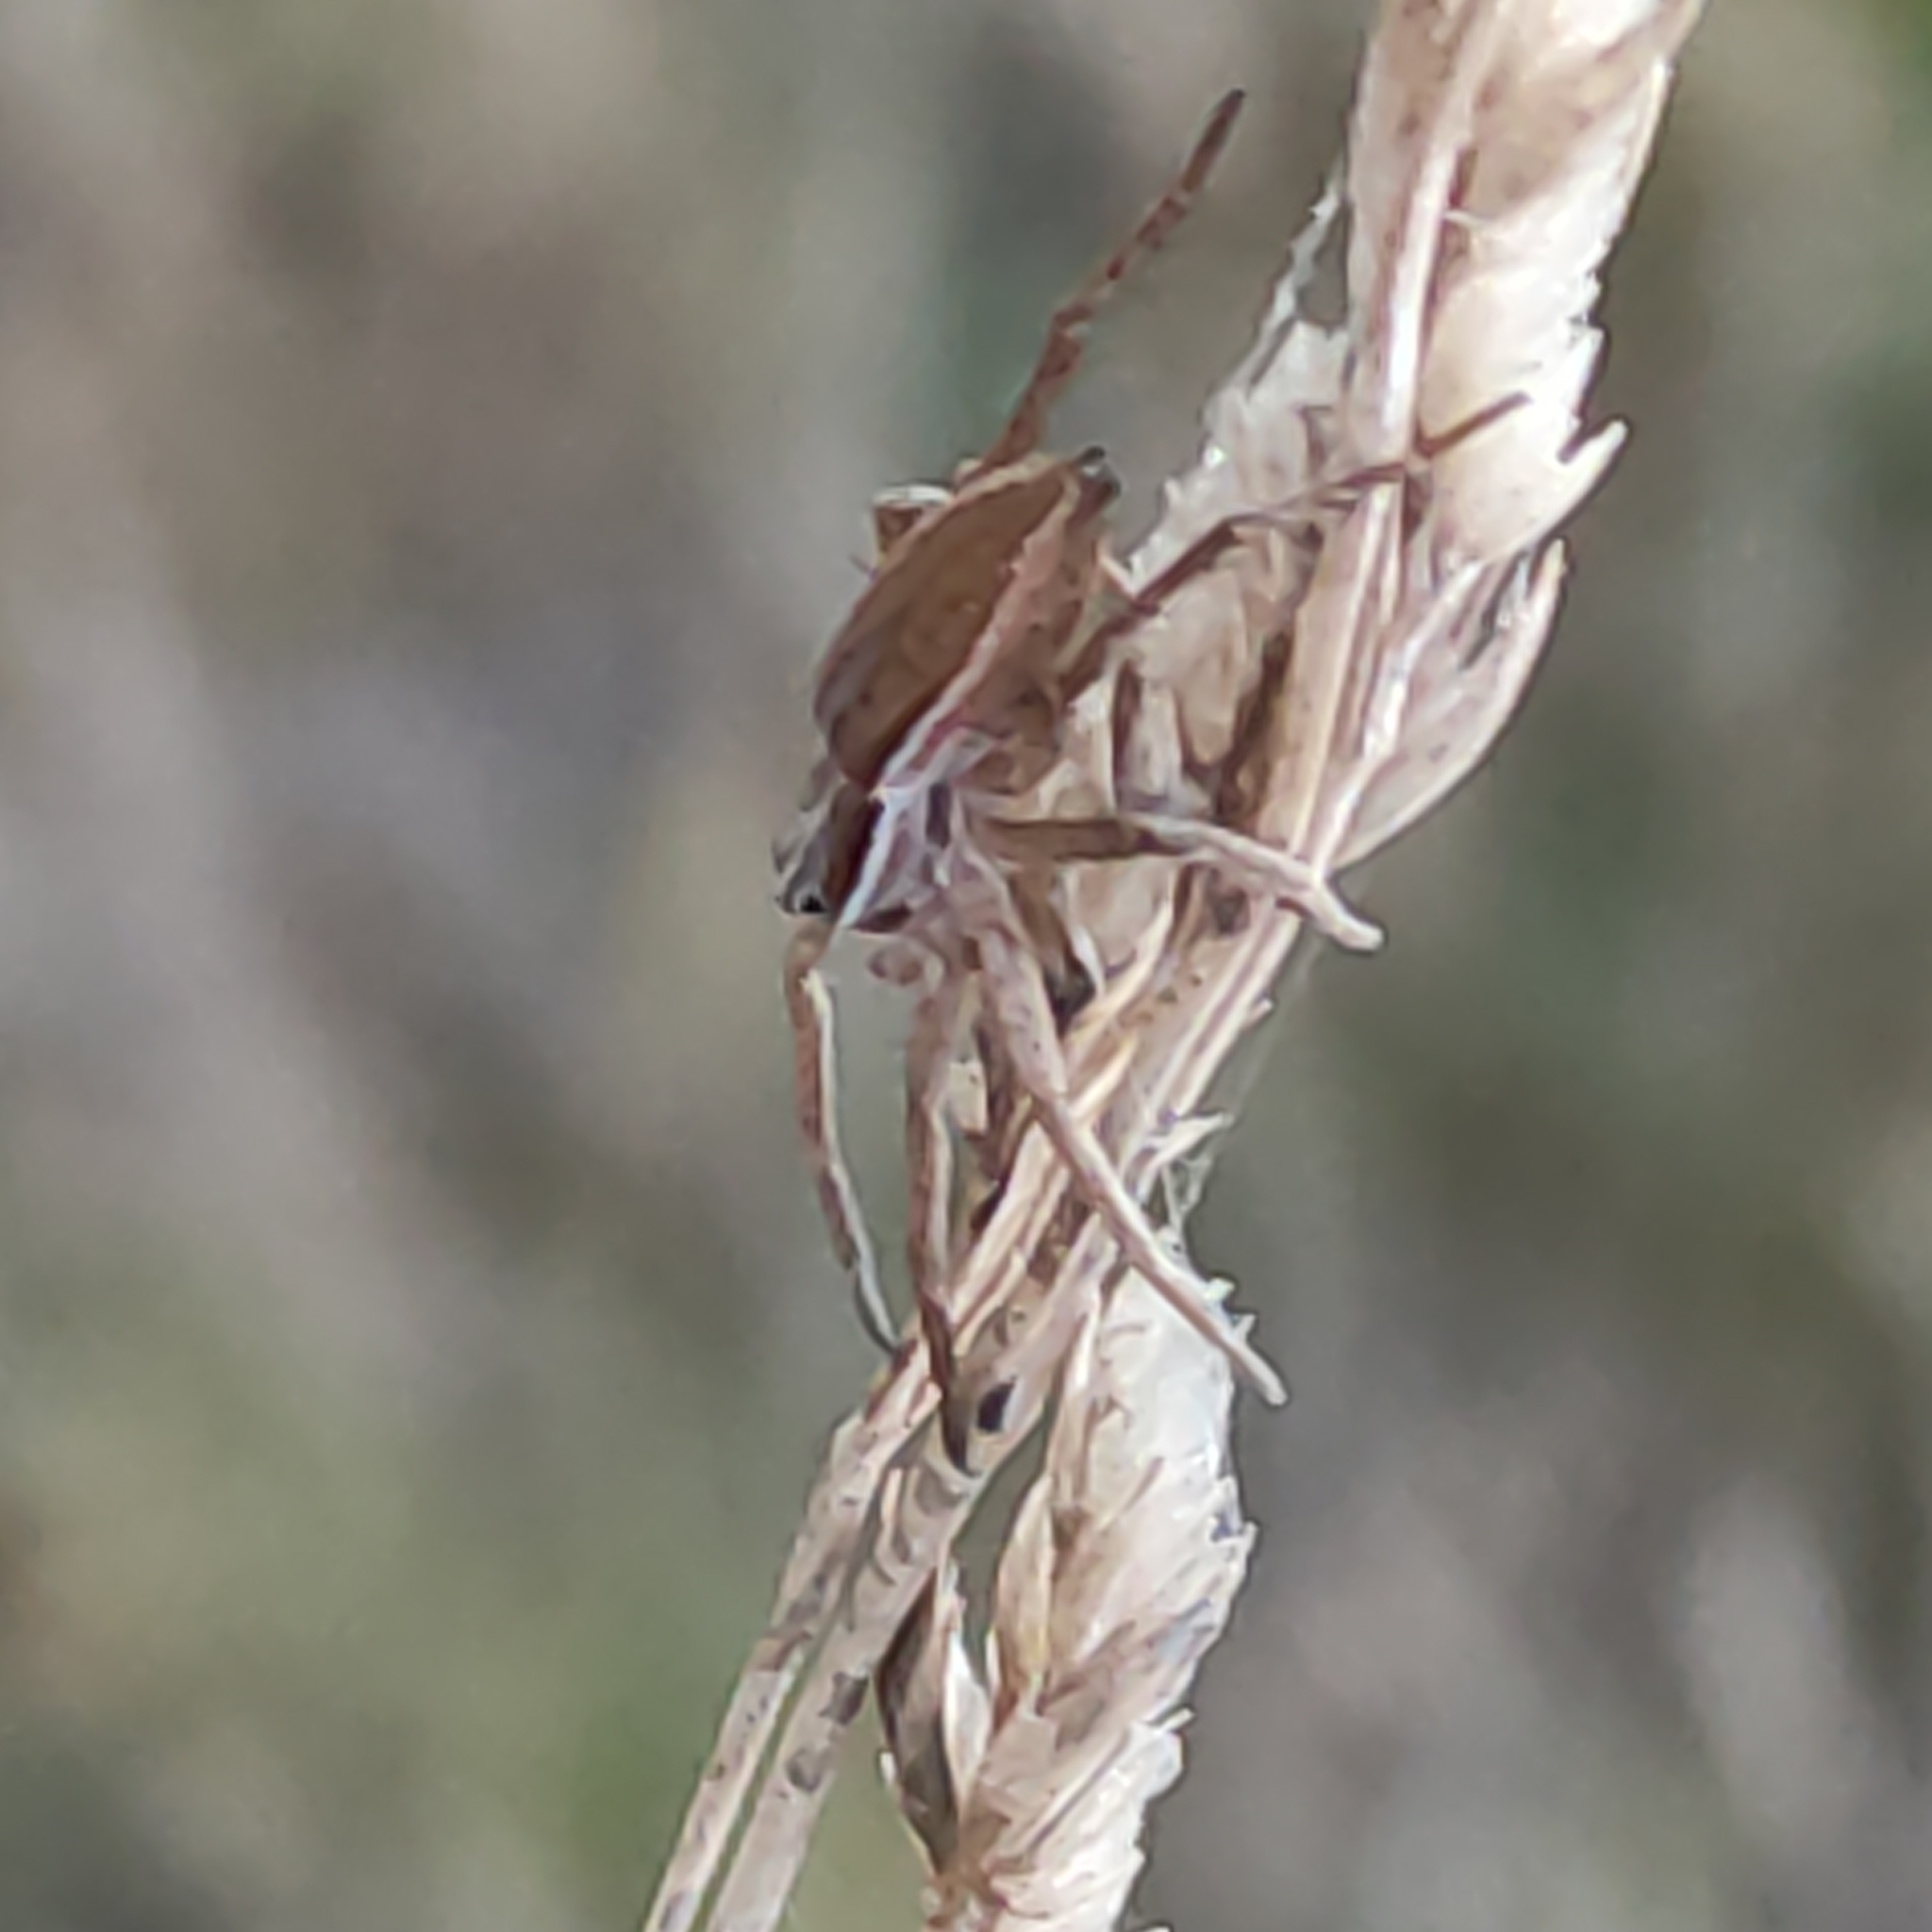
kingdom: Animalia
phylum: Arthropoda
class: Arachnida
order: Araneae
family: Pisauridae
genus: Dolomedes
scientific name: Dolomedes minor
